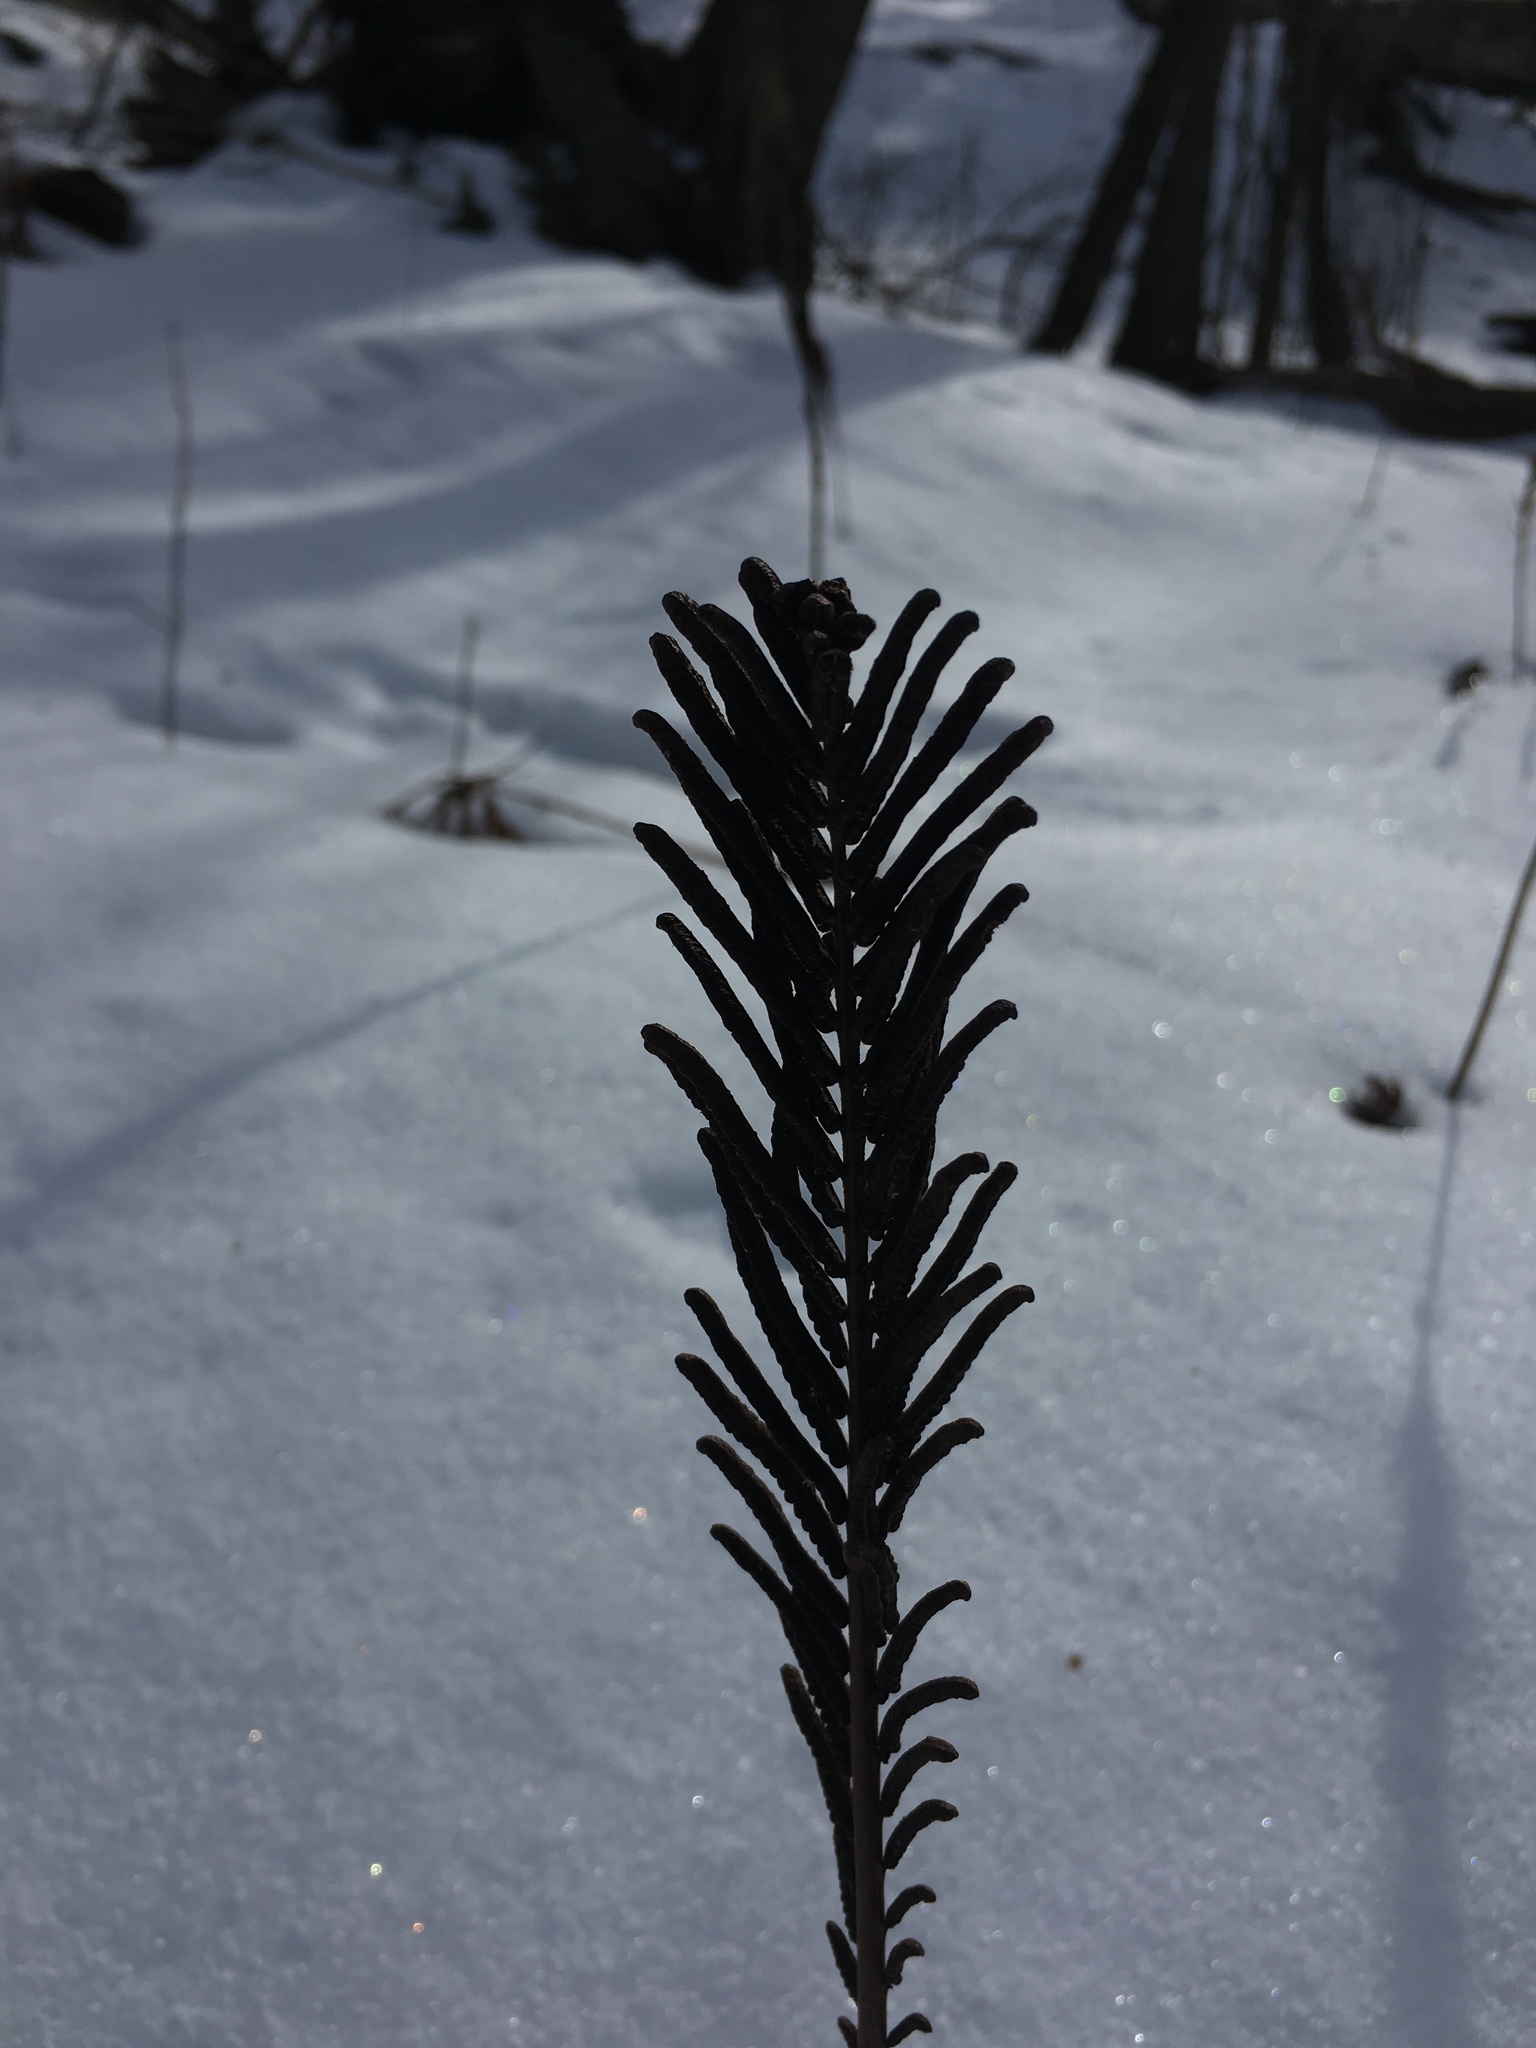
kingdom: Plantae
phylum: Tracheophyta
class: Polypodiopsida
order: Polypodiales
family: Onocleaceae
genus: Matteuccia
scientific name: Matteuccia struthiopteris
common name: Ostrich fern
